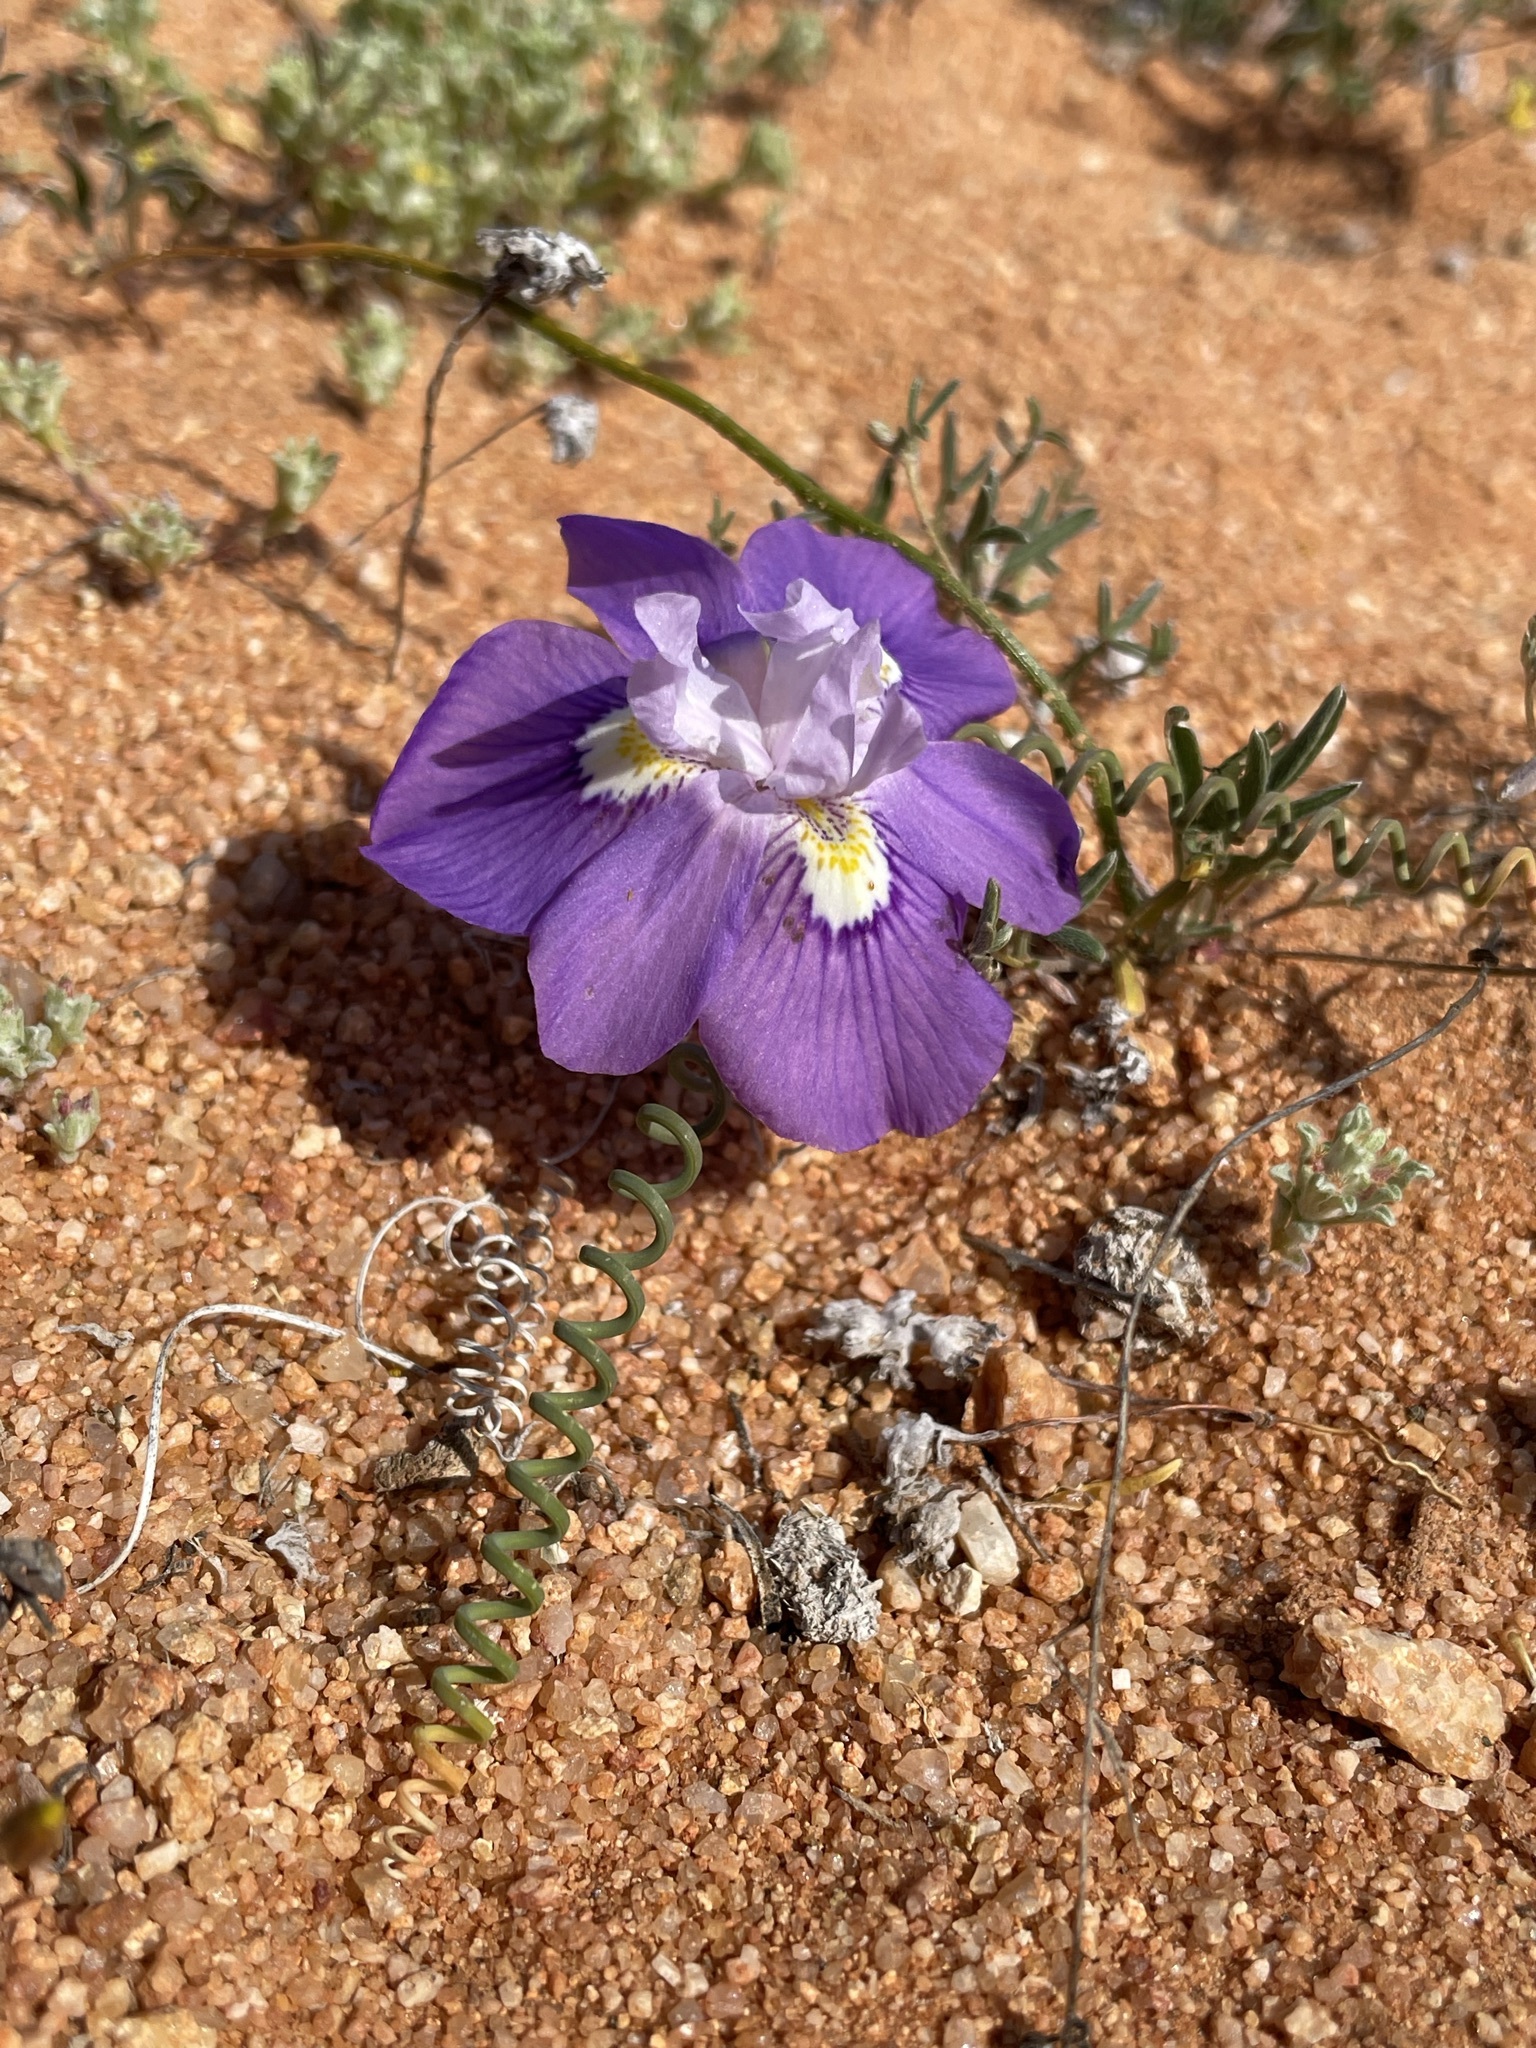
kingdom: Plantae
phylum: Tracheophyta
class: Liliopsida
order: Asparagales
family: Iridaceae
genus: Moraea
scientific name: Moraea tortilis
